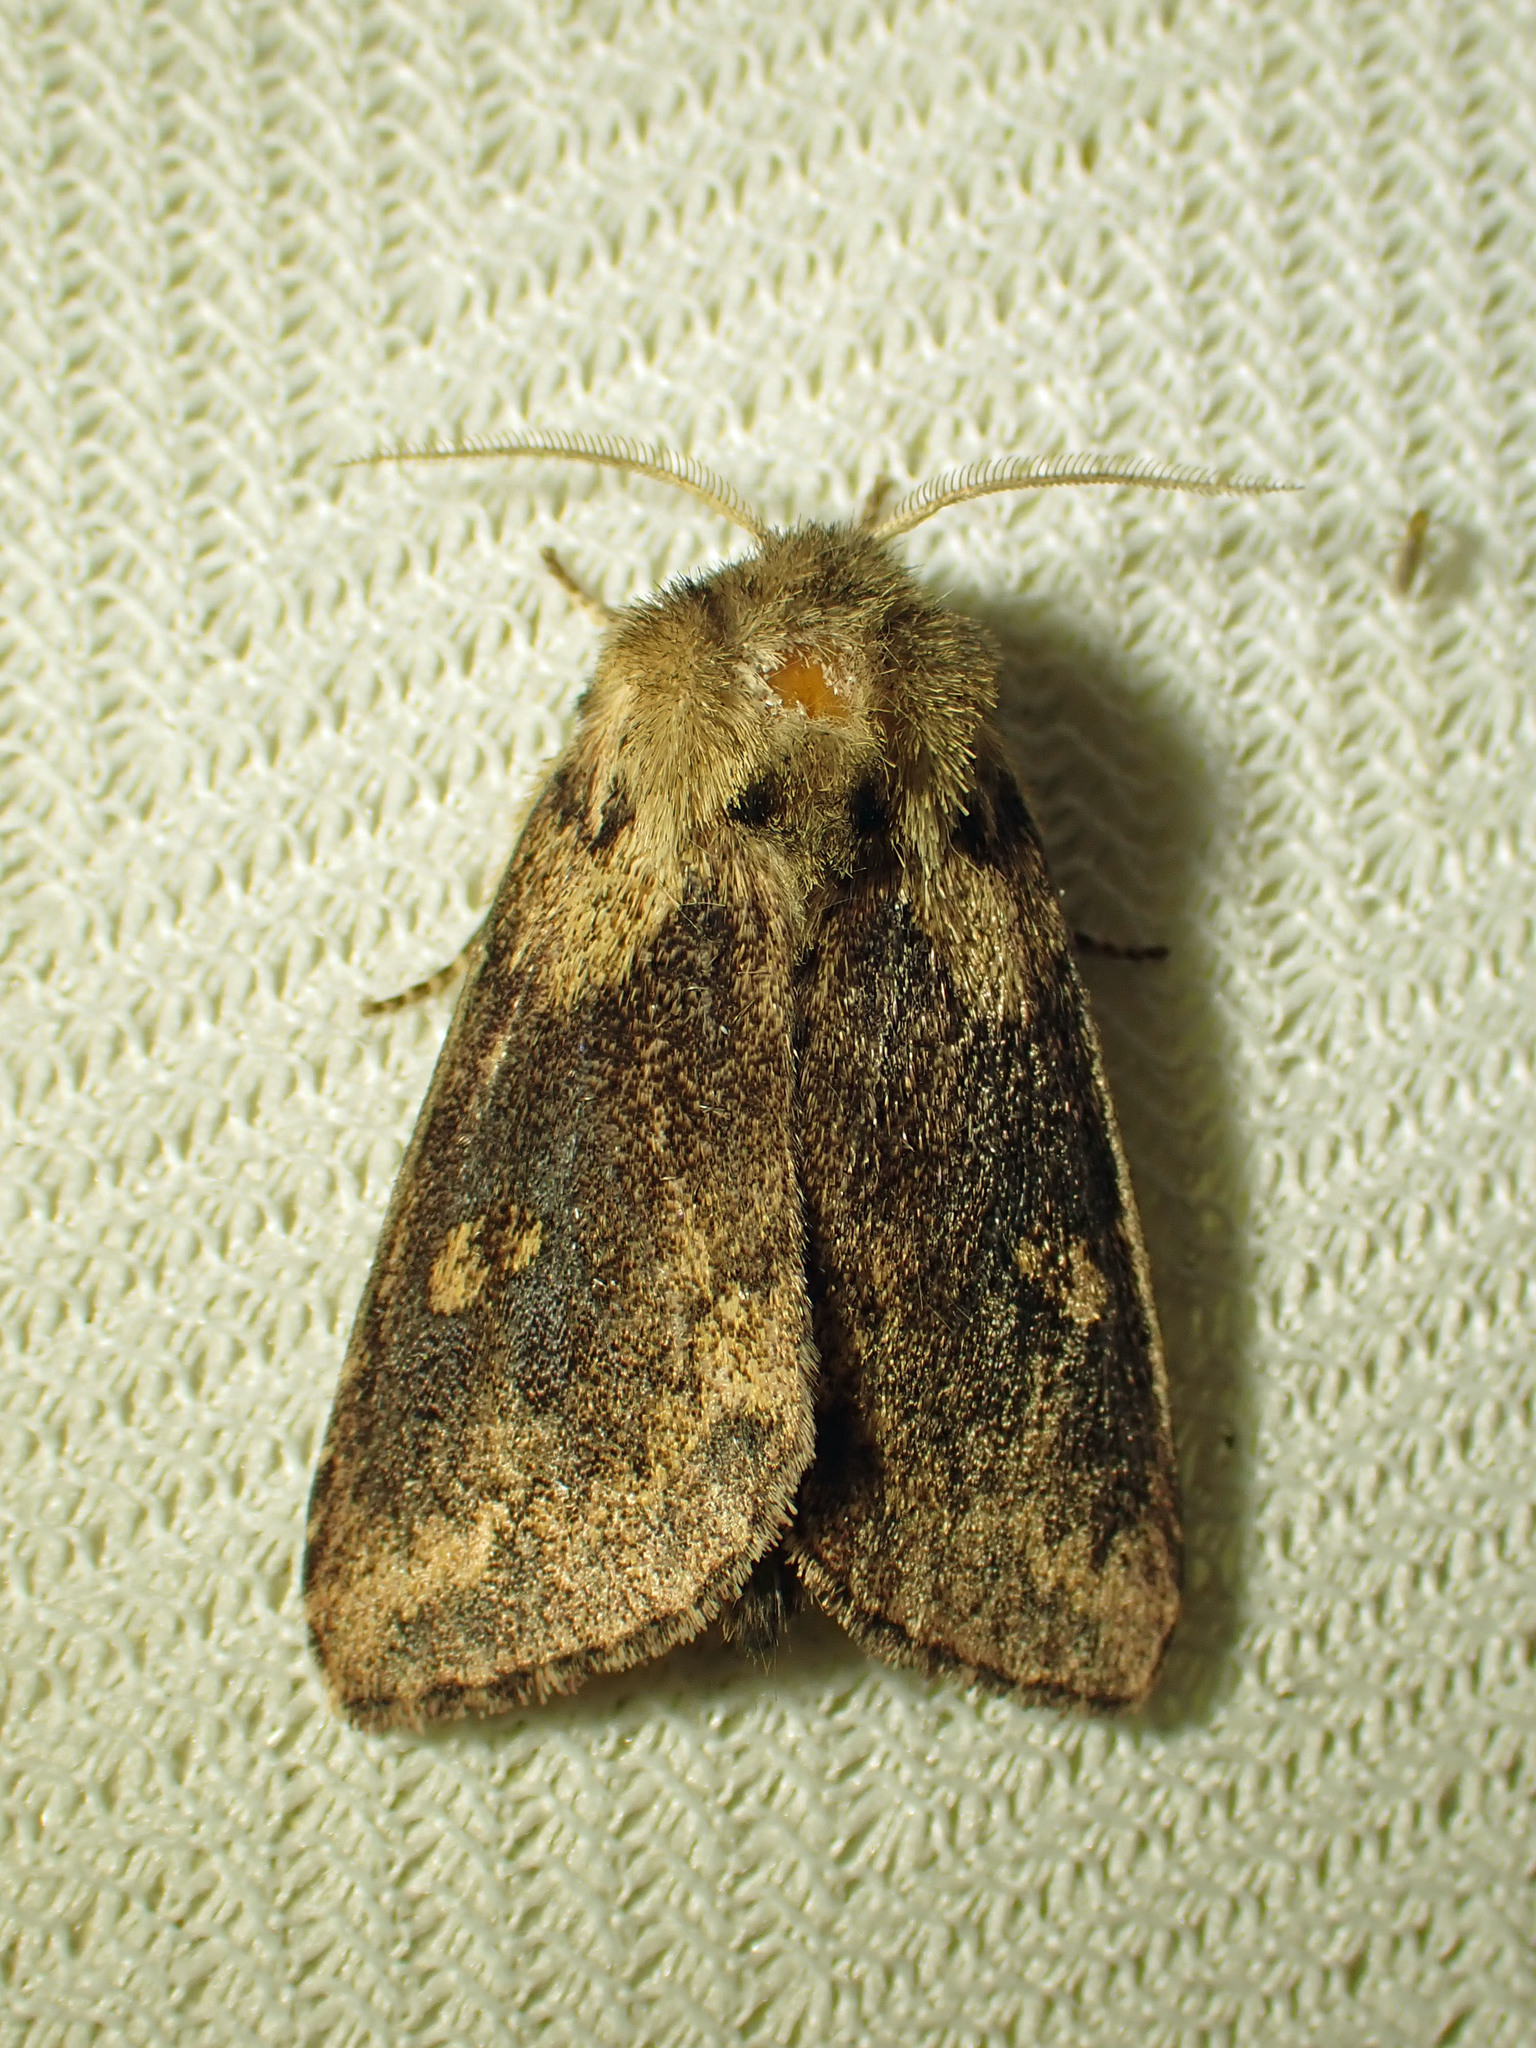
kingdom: Animalia
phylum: Arthropoda
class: Insecta
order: Lepidoptera
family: Noctuidae
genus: Bellura
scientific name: Bellura vulnifica
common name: Black-tailed diver moth
